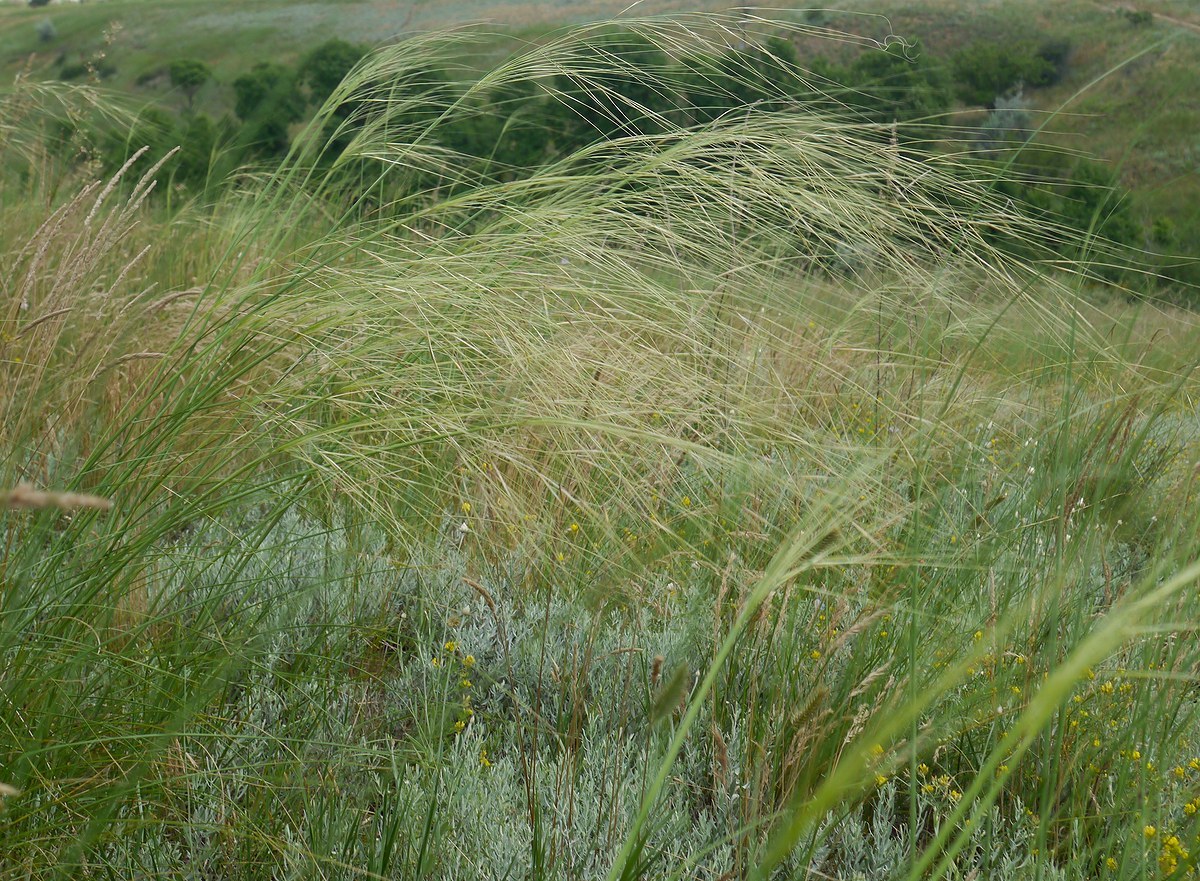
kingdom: Plantae
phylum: Tracheophyta
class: Liliopsida
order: Poales
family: Poaceae
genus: Stipa
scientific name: Stipa capillata
